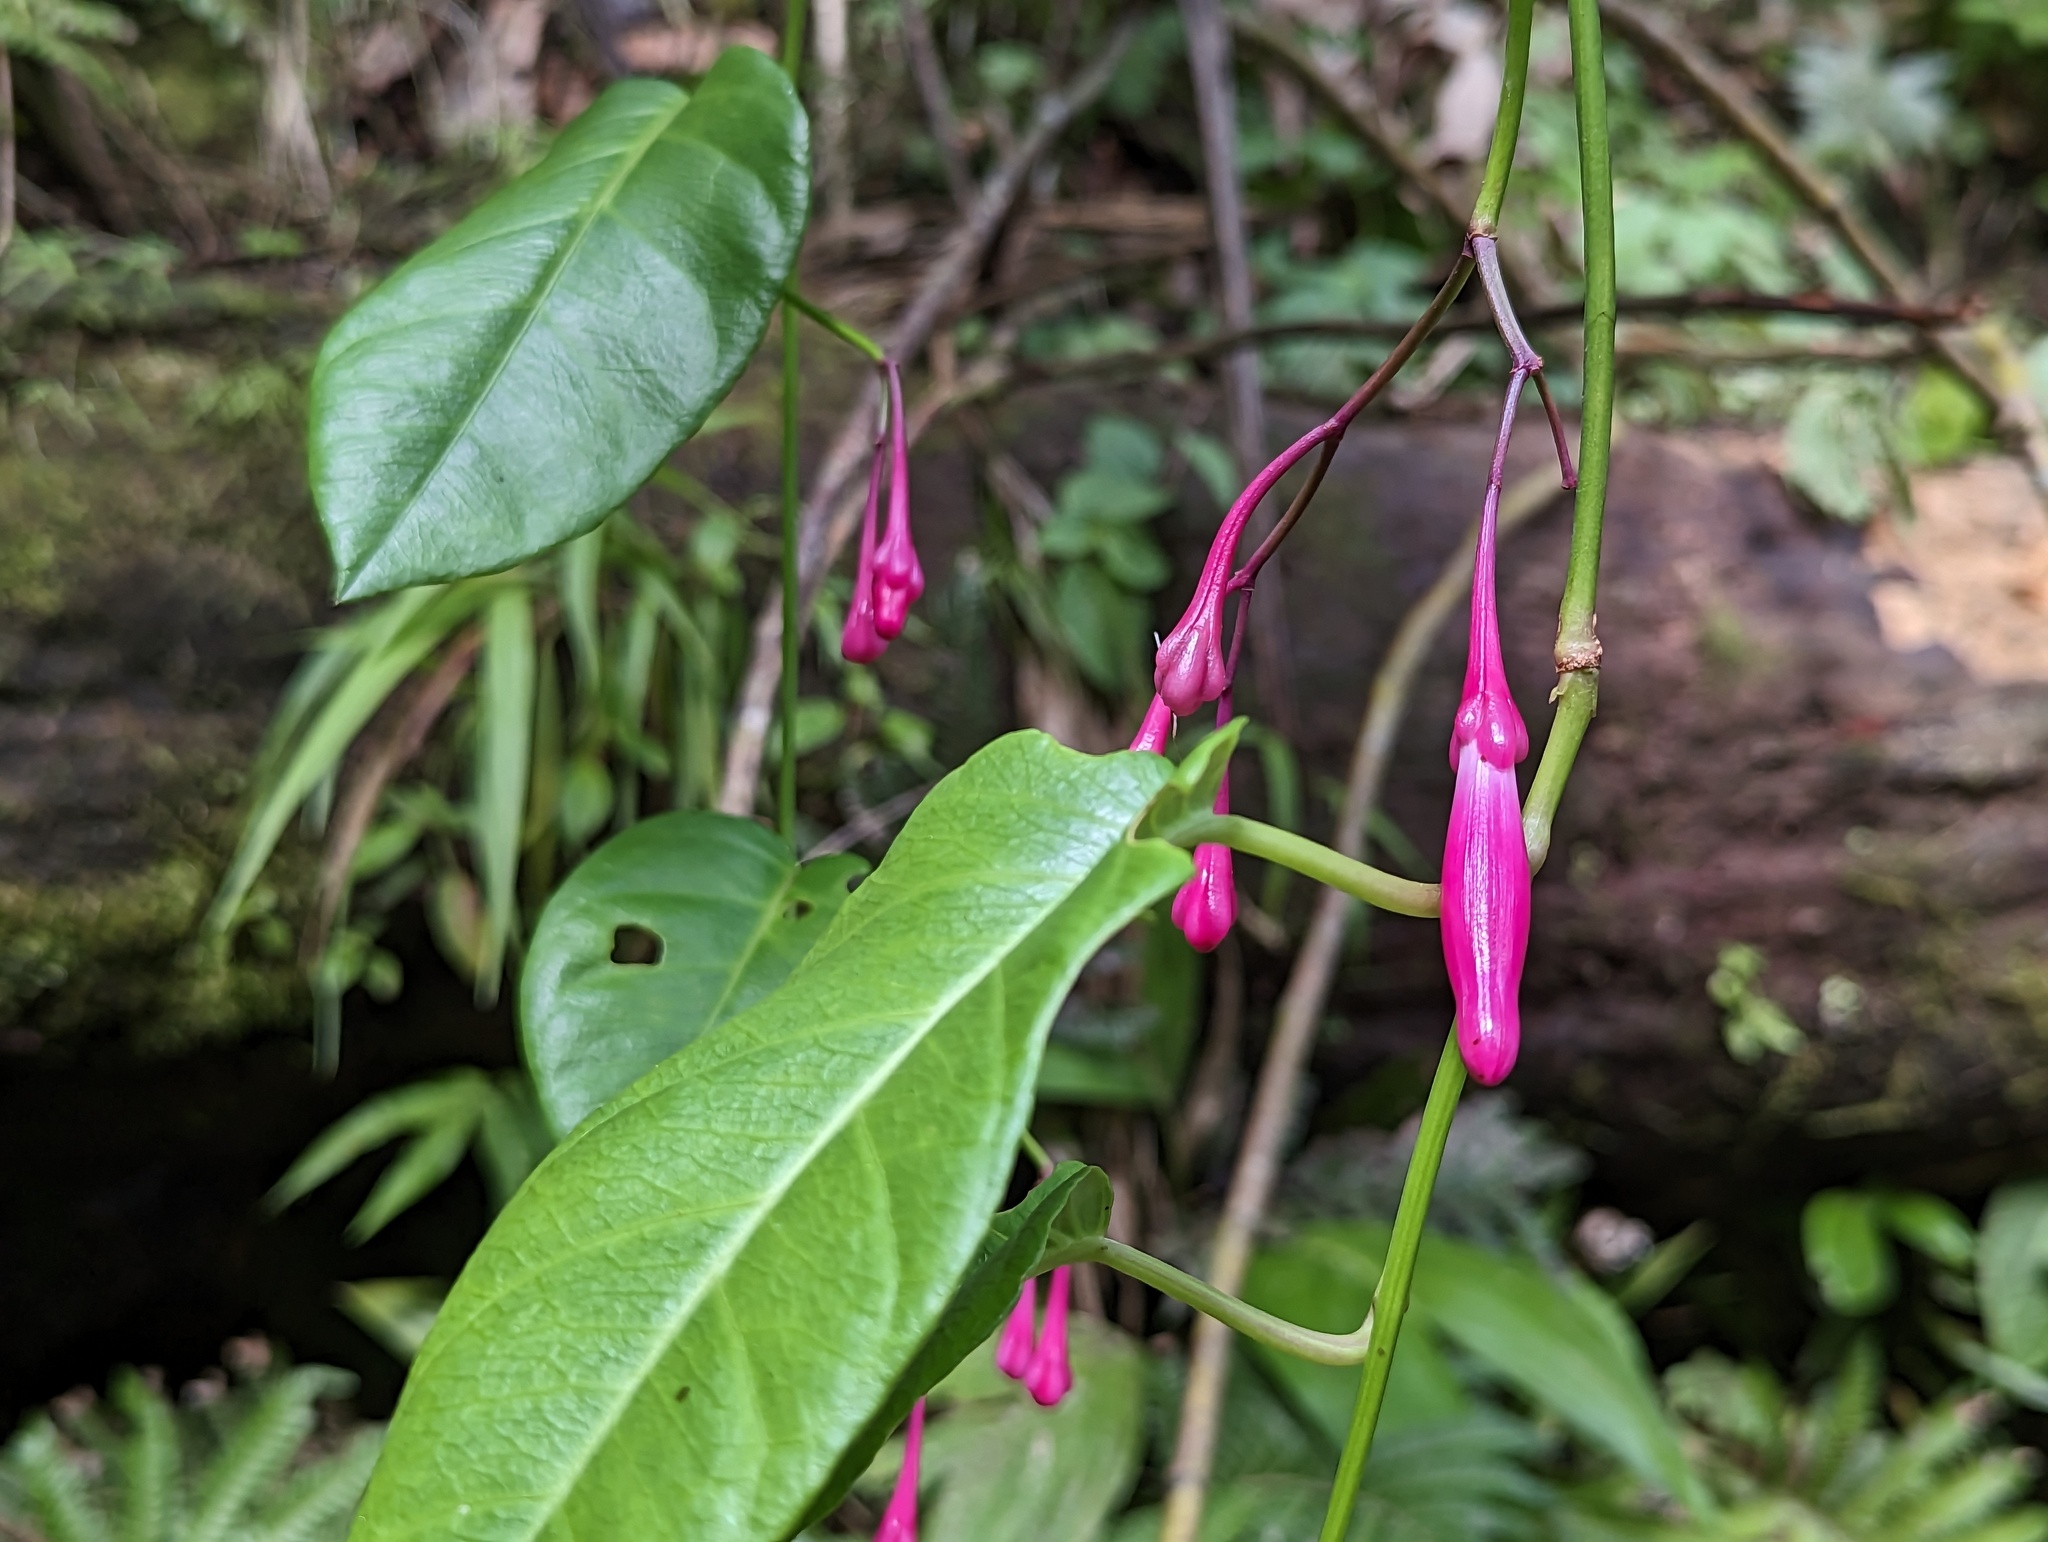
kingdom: Plantae
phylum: Tracheophyta
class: Magnoliopsida
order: Solanales
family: Convolvulaceae
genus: Ipomoea
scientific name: Ipomoea repanda
